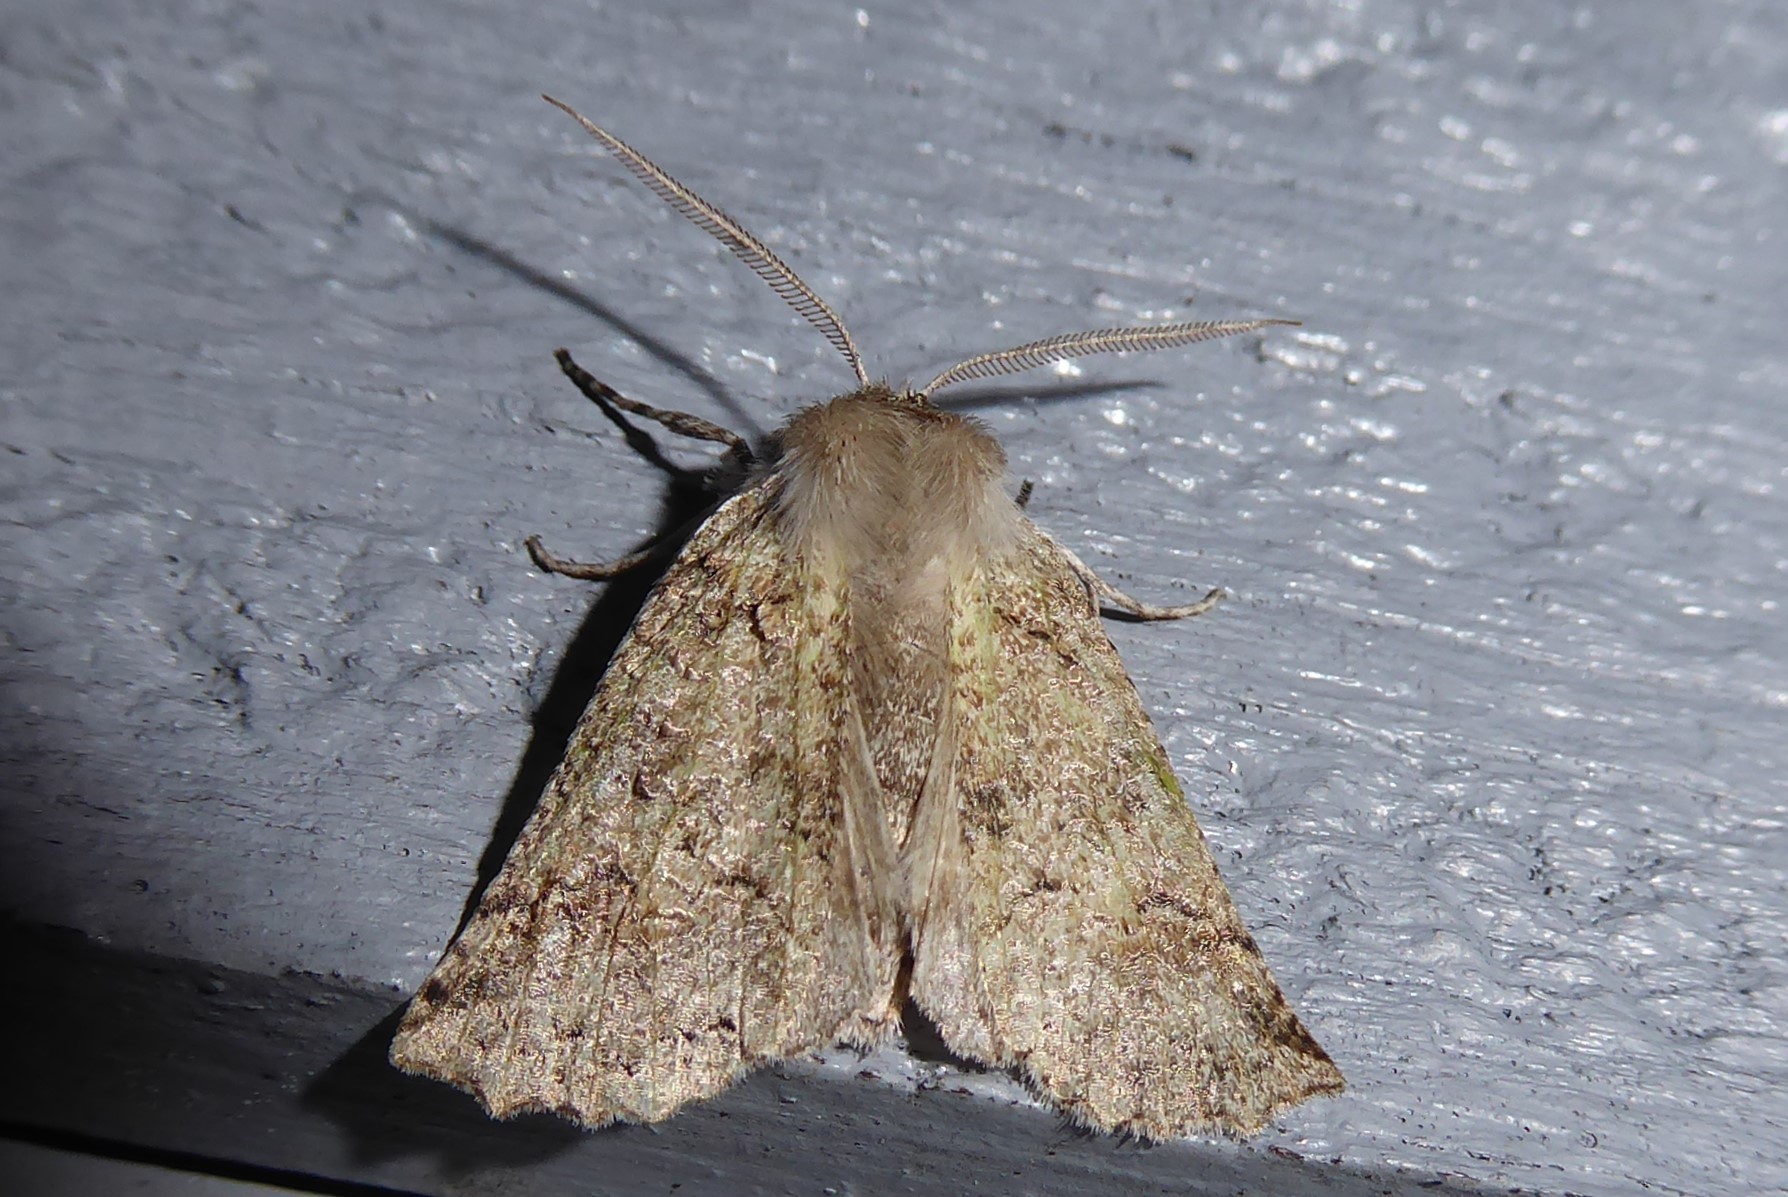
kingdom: Animalia
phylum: Arthropoda
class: Insecta
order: Lepidoptera
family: Geometridae
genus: Declana
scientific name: Declana floccosa
